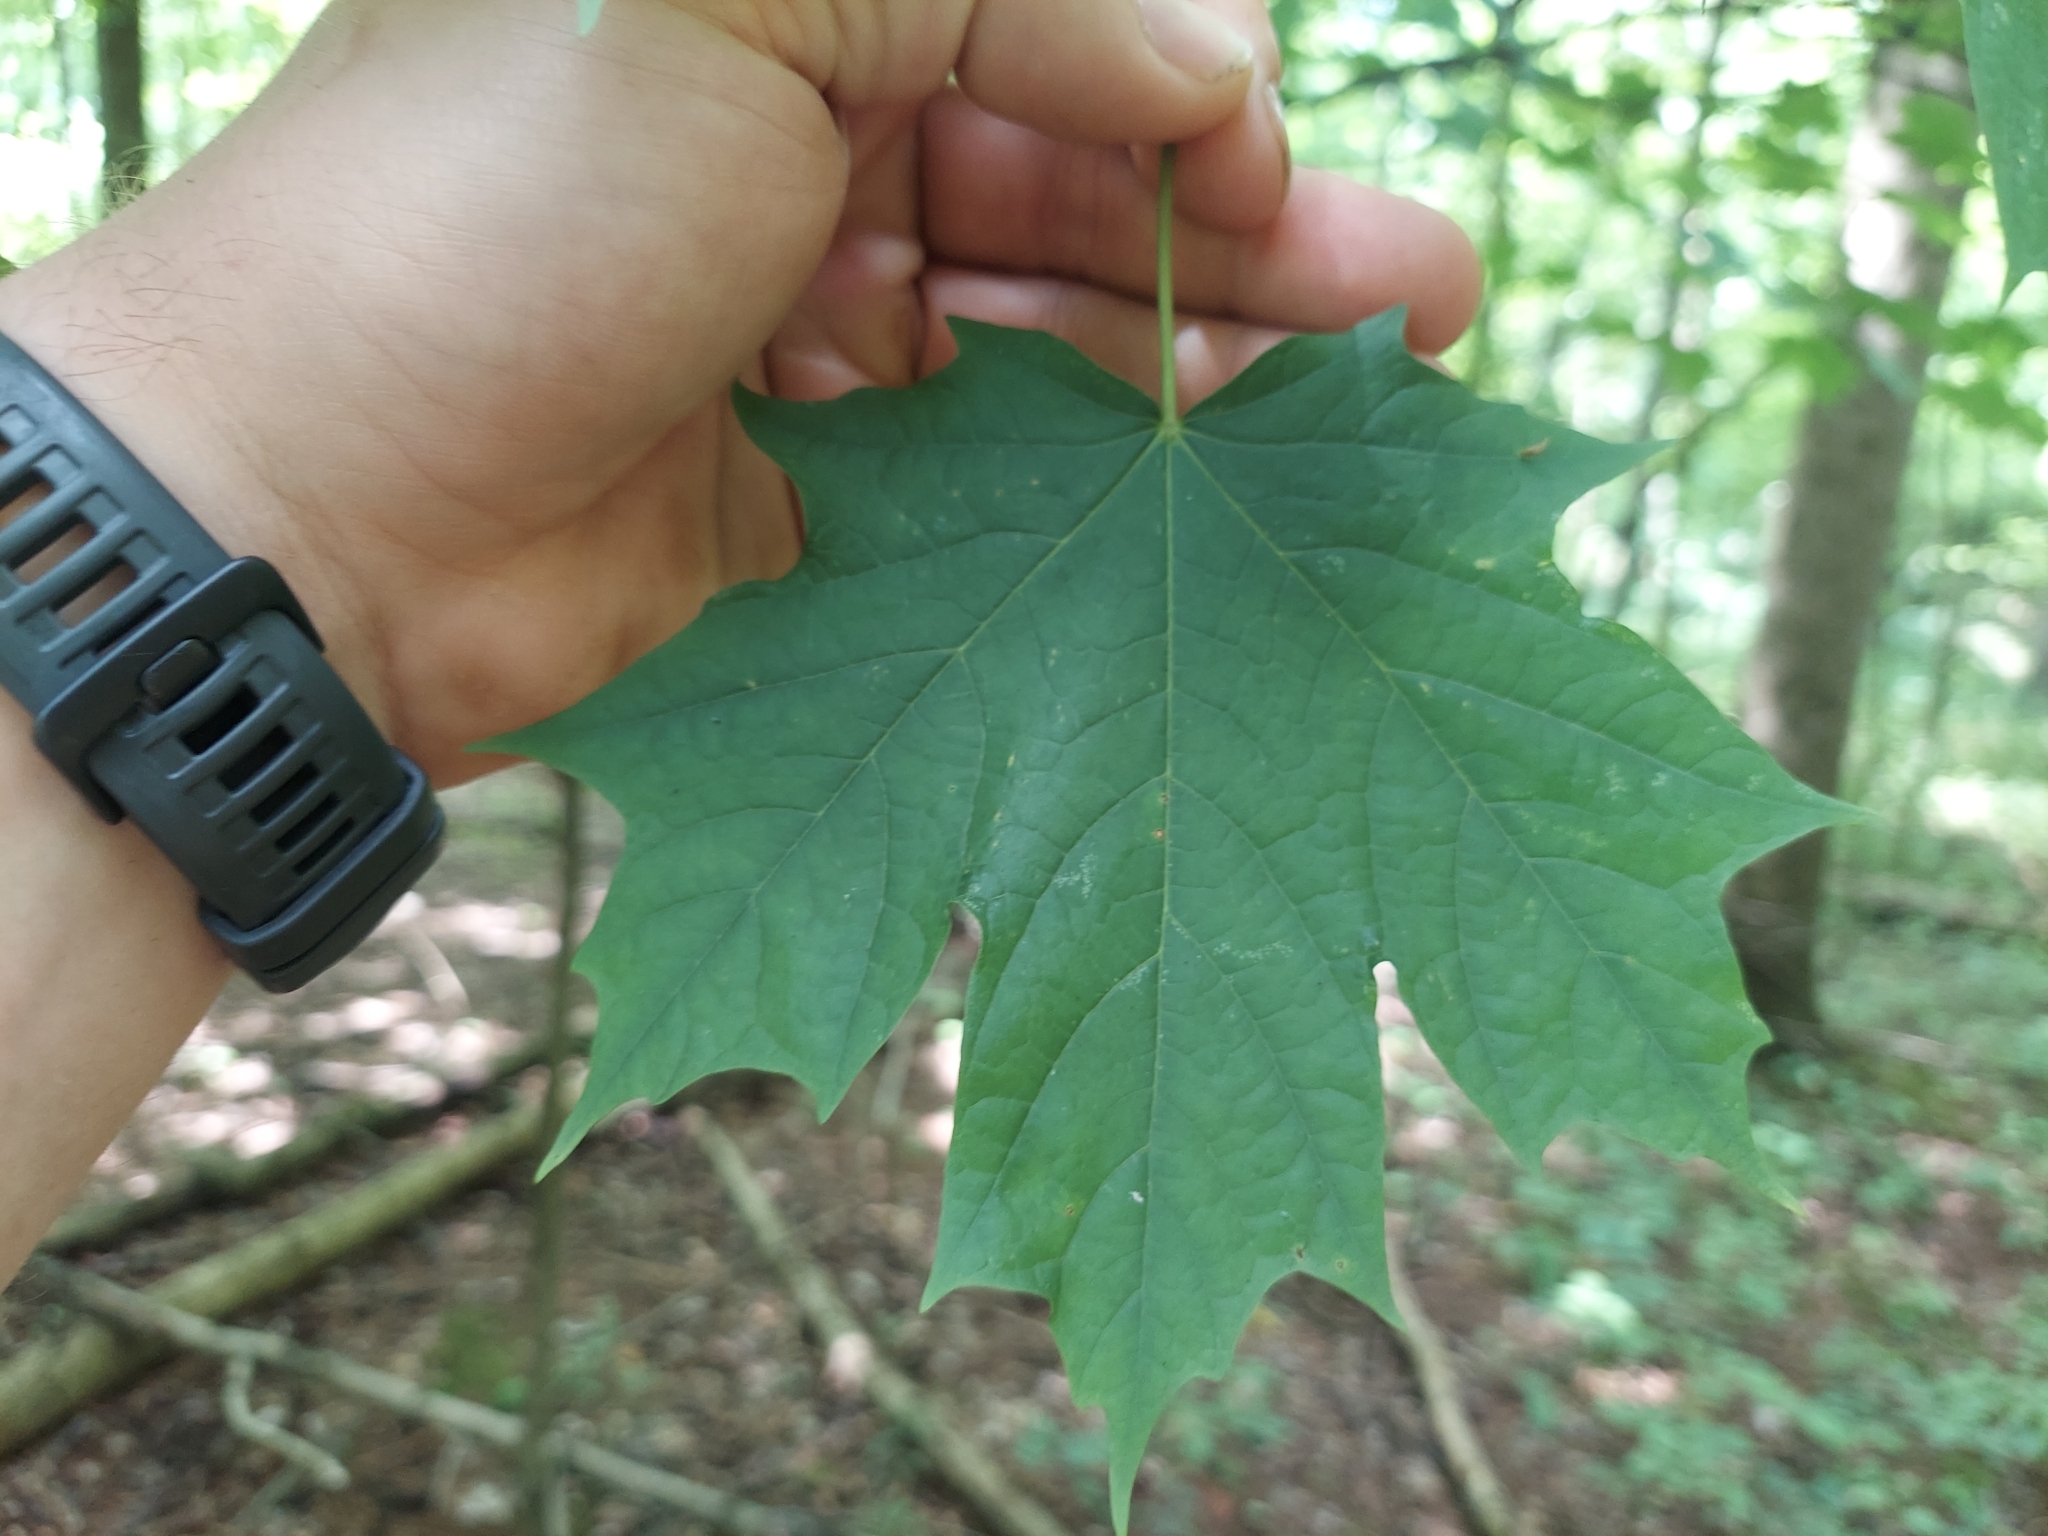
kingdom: Plantae
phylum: Tracheophyta
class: Magnoliopsida
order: Sapindales
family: Sapindaceae
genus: Acer
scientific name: Acer saccharum
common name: Sugar maple
